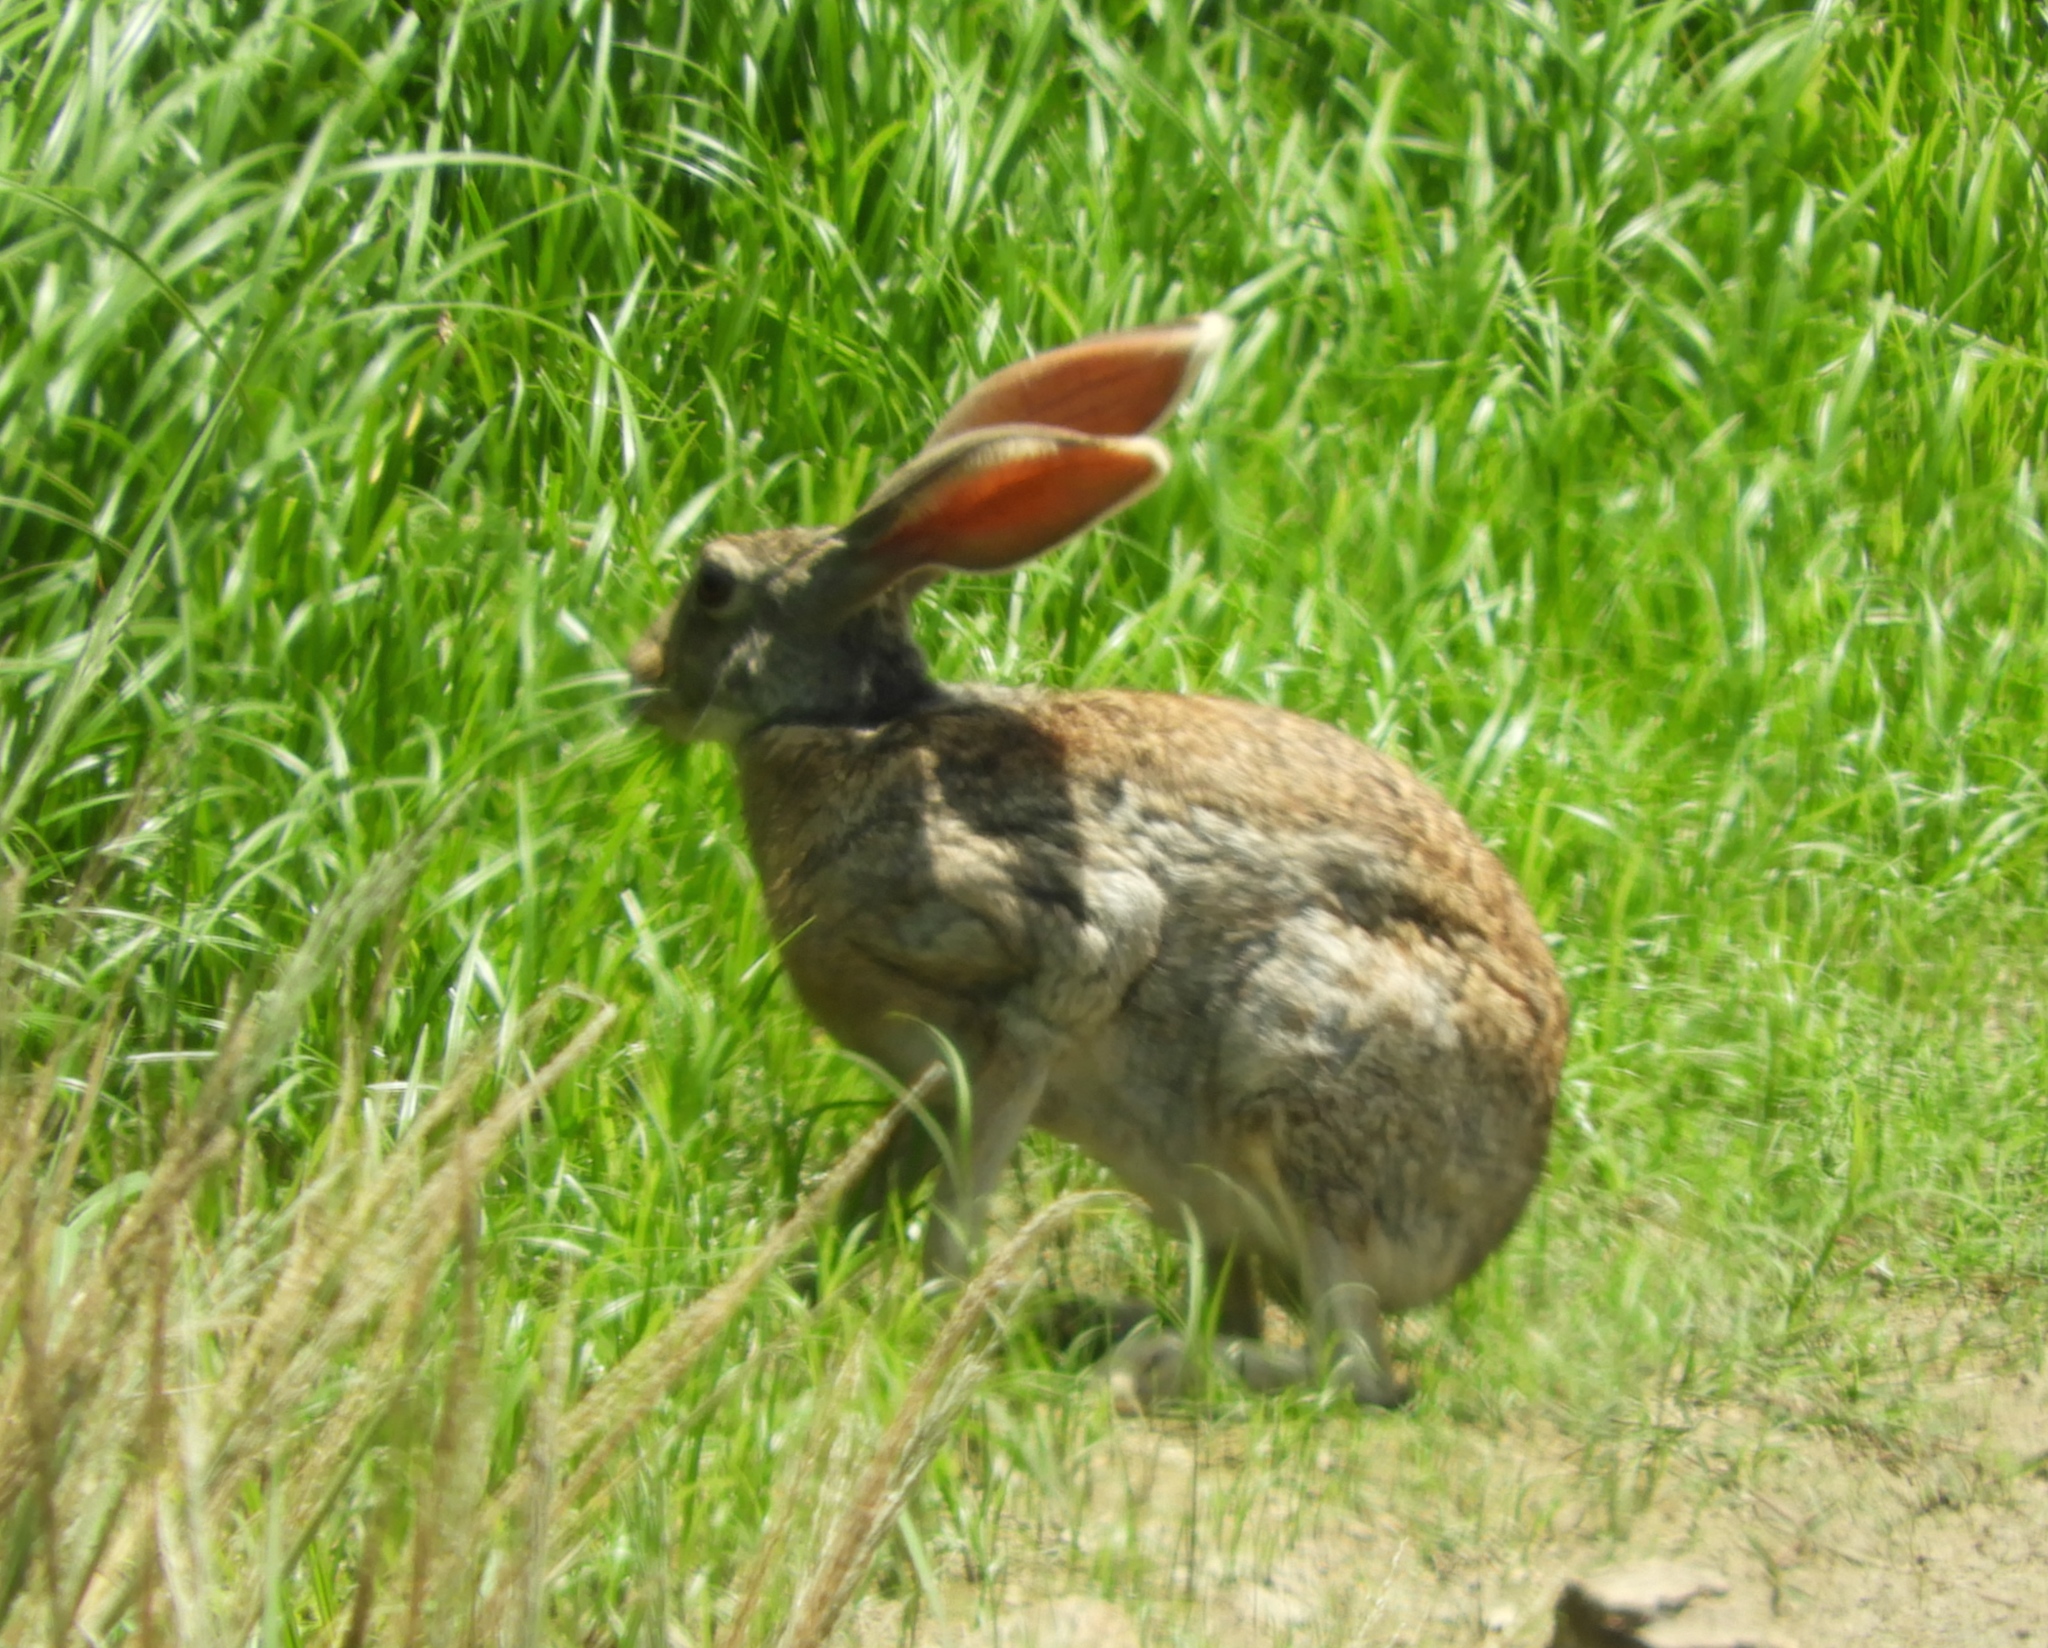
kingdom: Animalia
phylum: Chordata
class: Mammalia
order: Lagomorpha
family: Leporidae
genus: Lepus
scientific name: Lepus alleni
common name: Antelope jackrabbit
